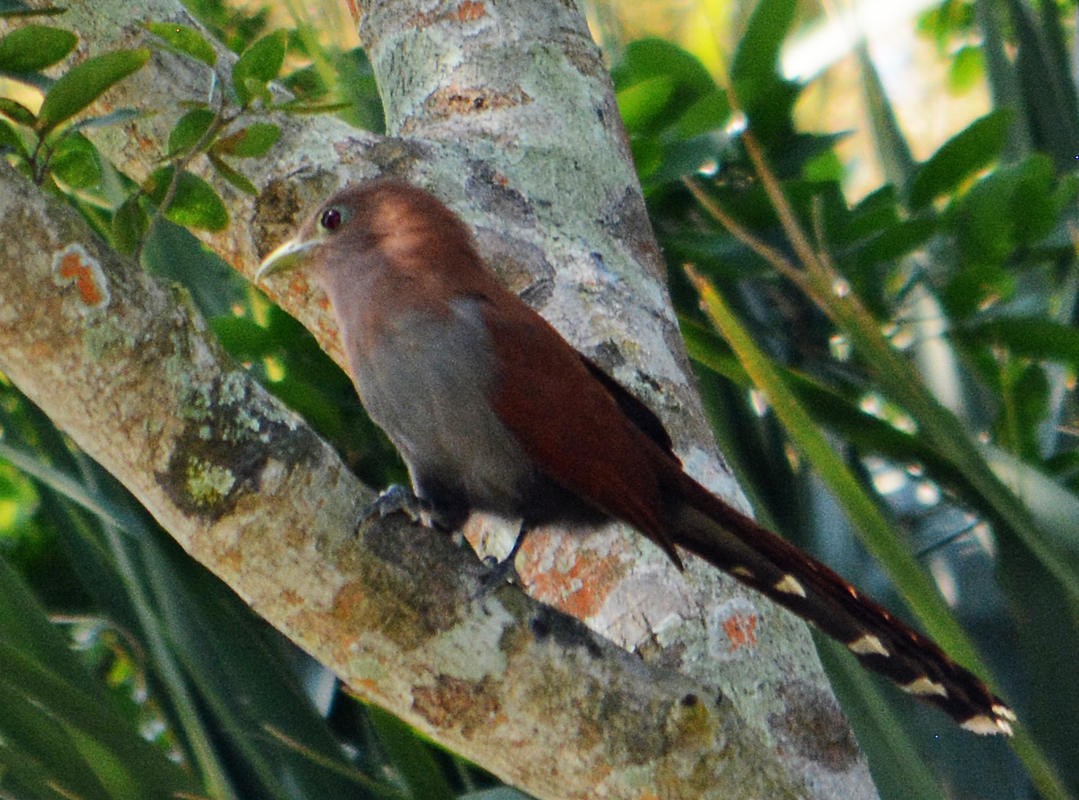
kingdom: Animalia
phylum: Chordata
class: Aves
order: Cuculiformes
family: Cuculidae
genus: Piaya
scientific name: Piaya cayana
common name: Squirrel cuckoo
